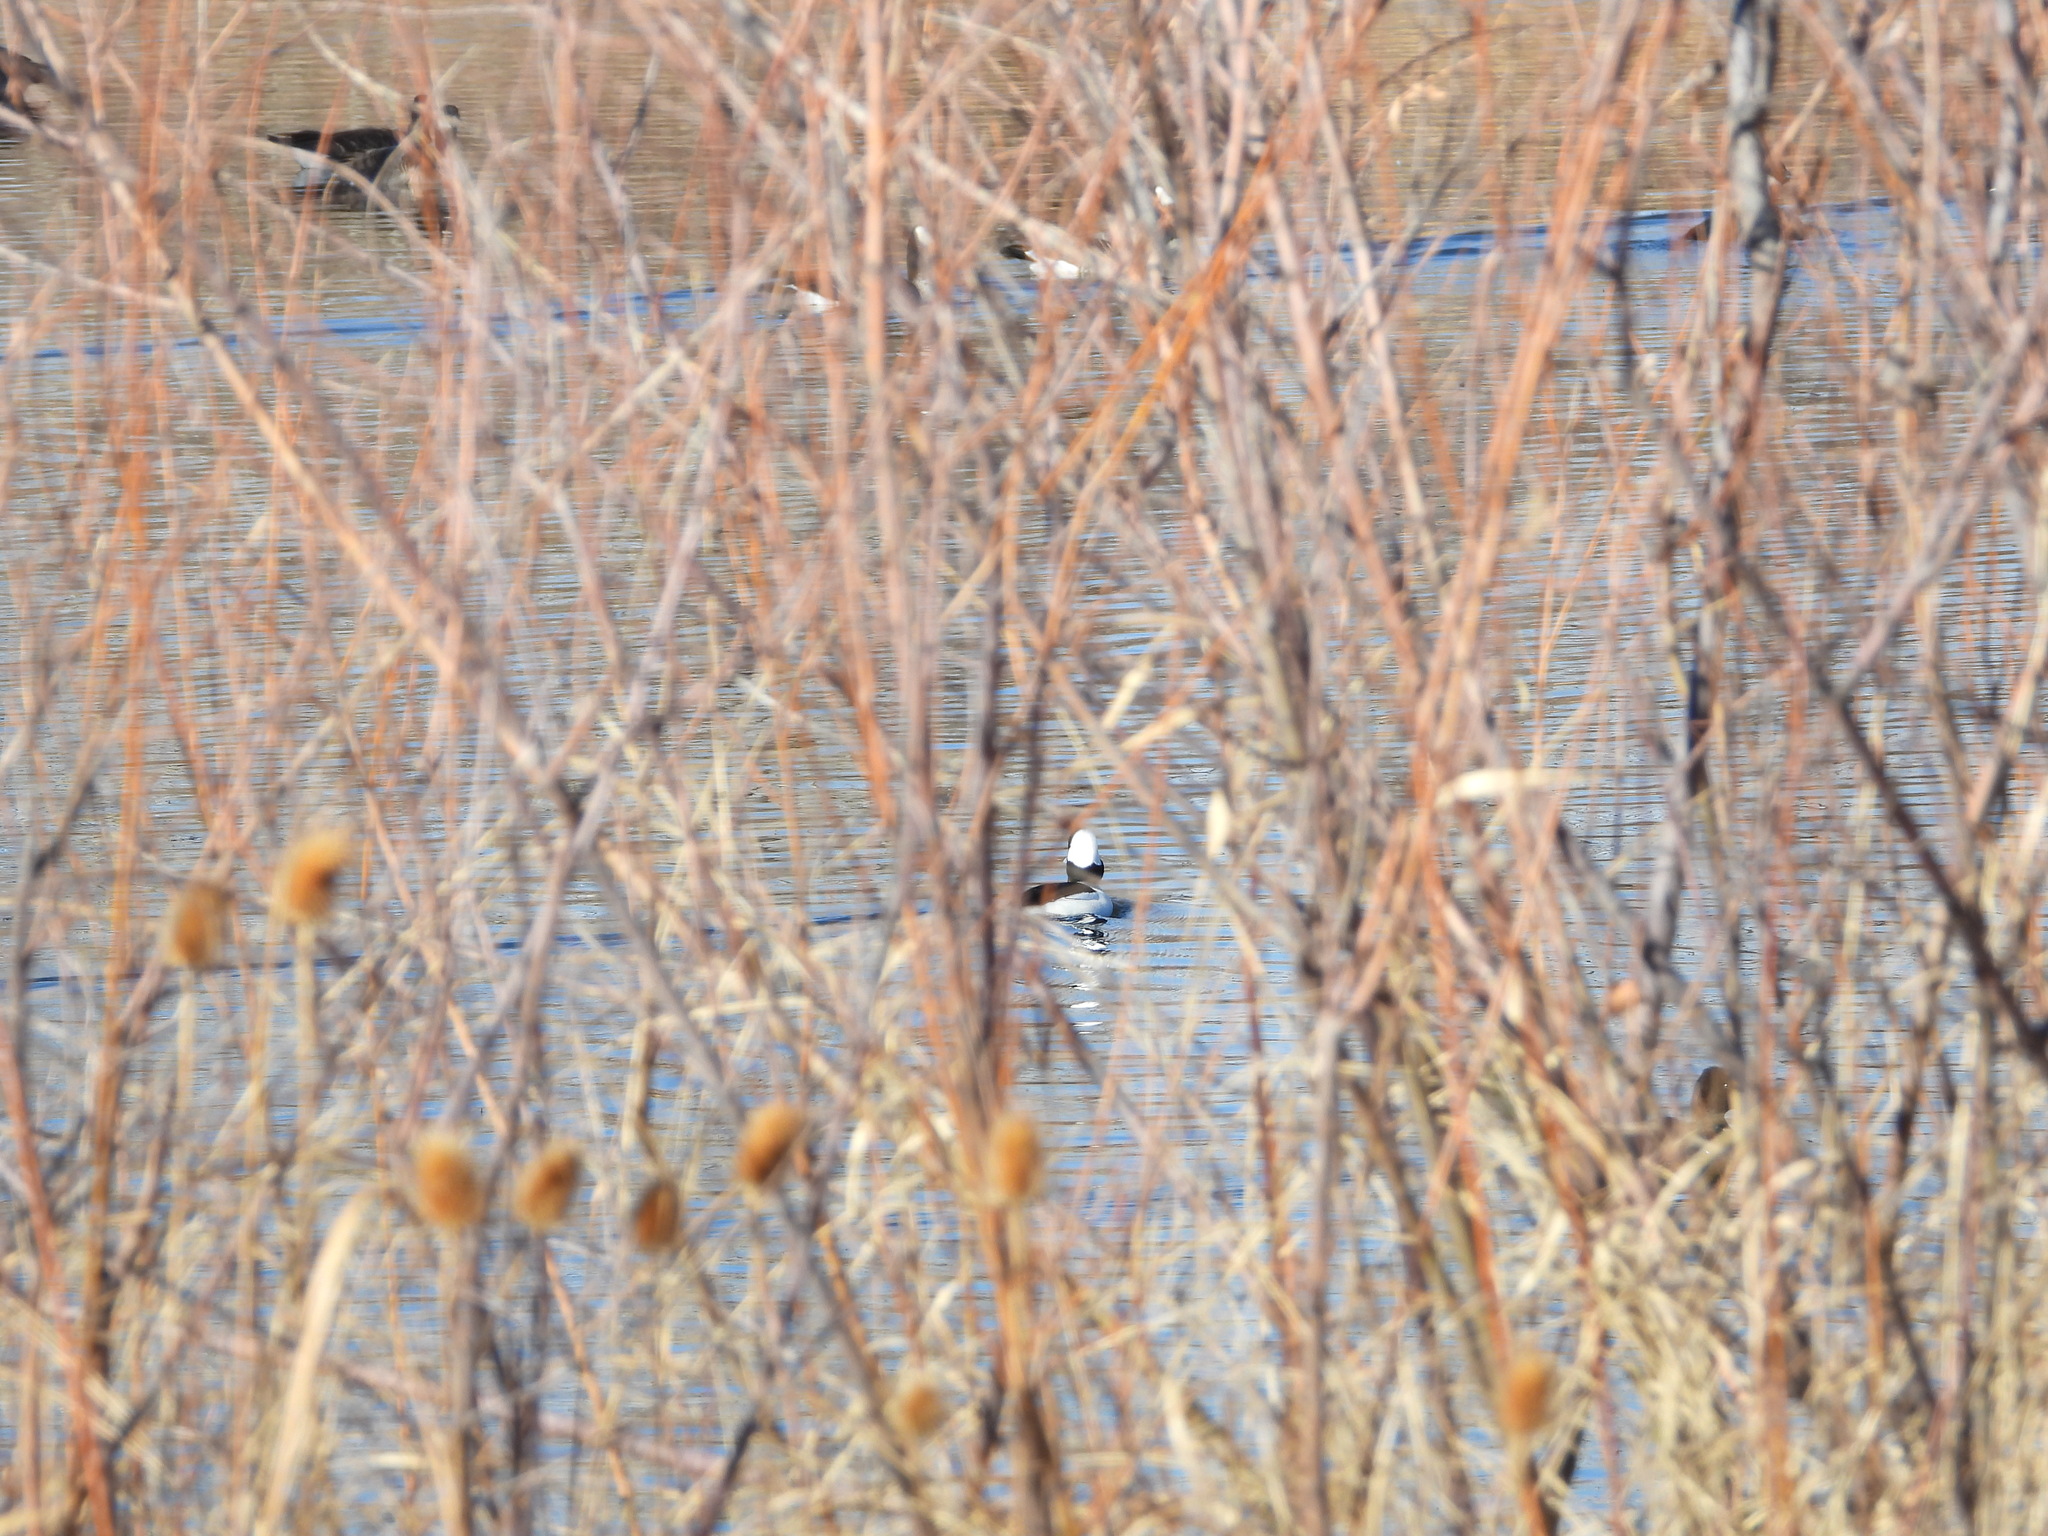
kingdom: Animalia
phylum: Chordata
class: Aves
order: Anseriformes
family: Anatidae
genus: Bucephala
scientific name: Bucephala albeola
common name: Bufflehead
